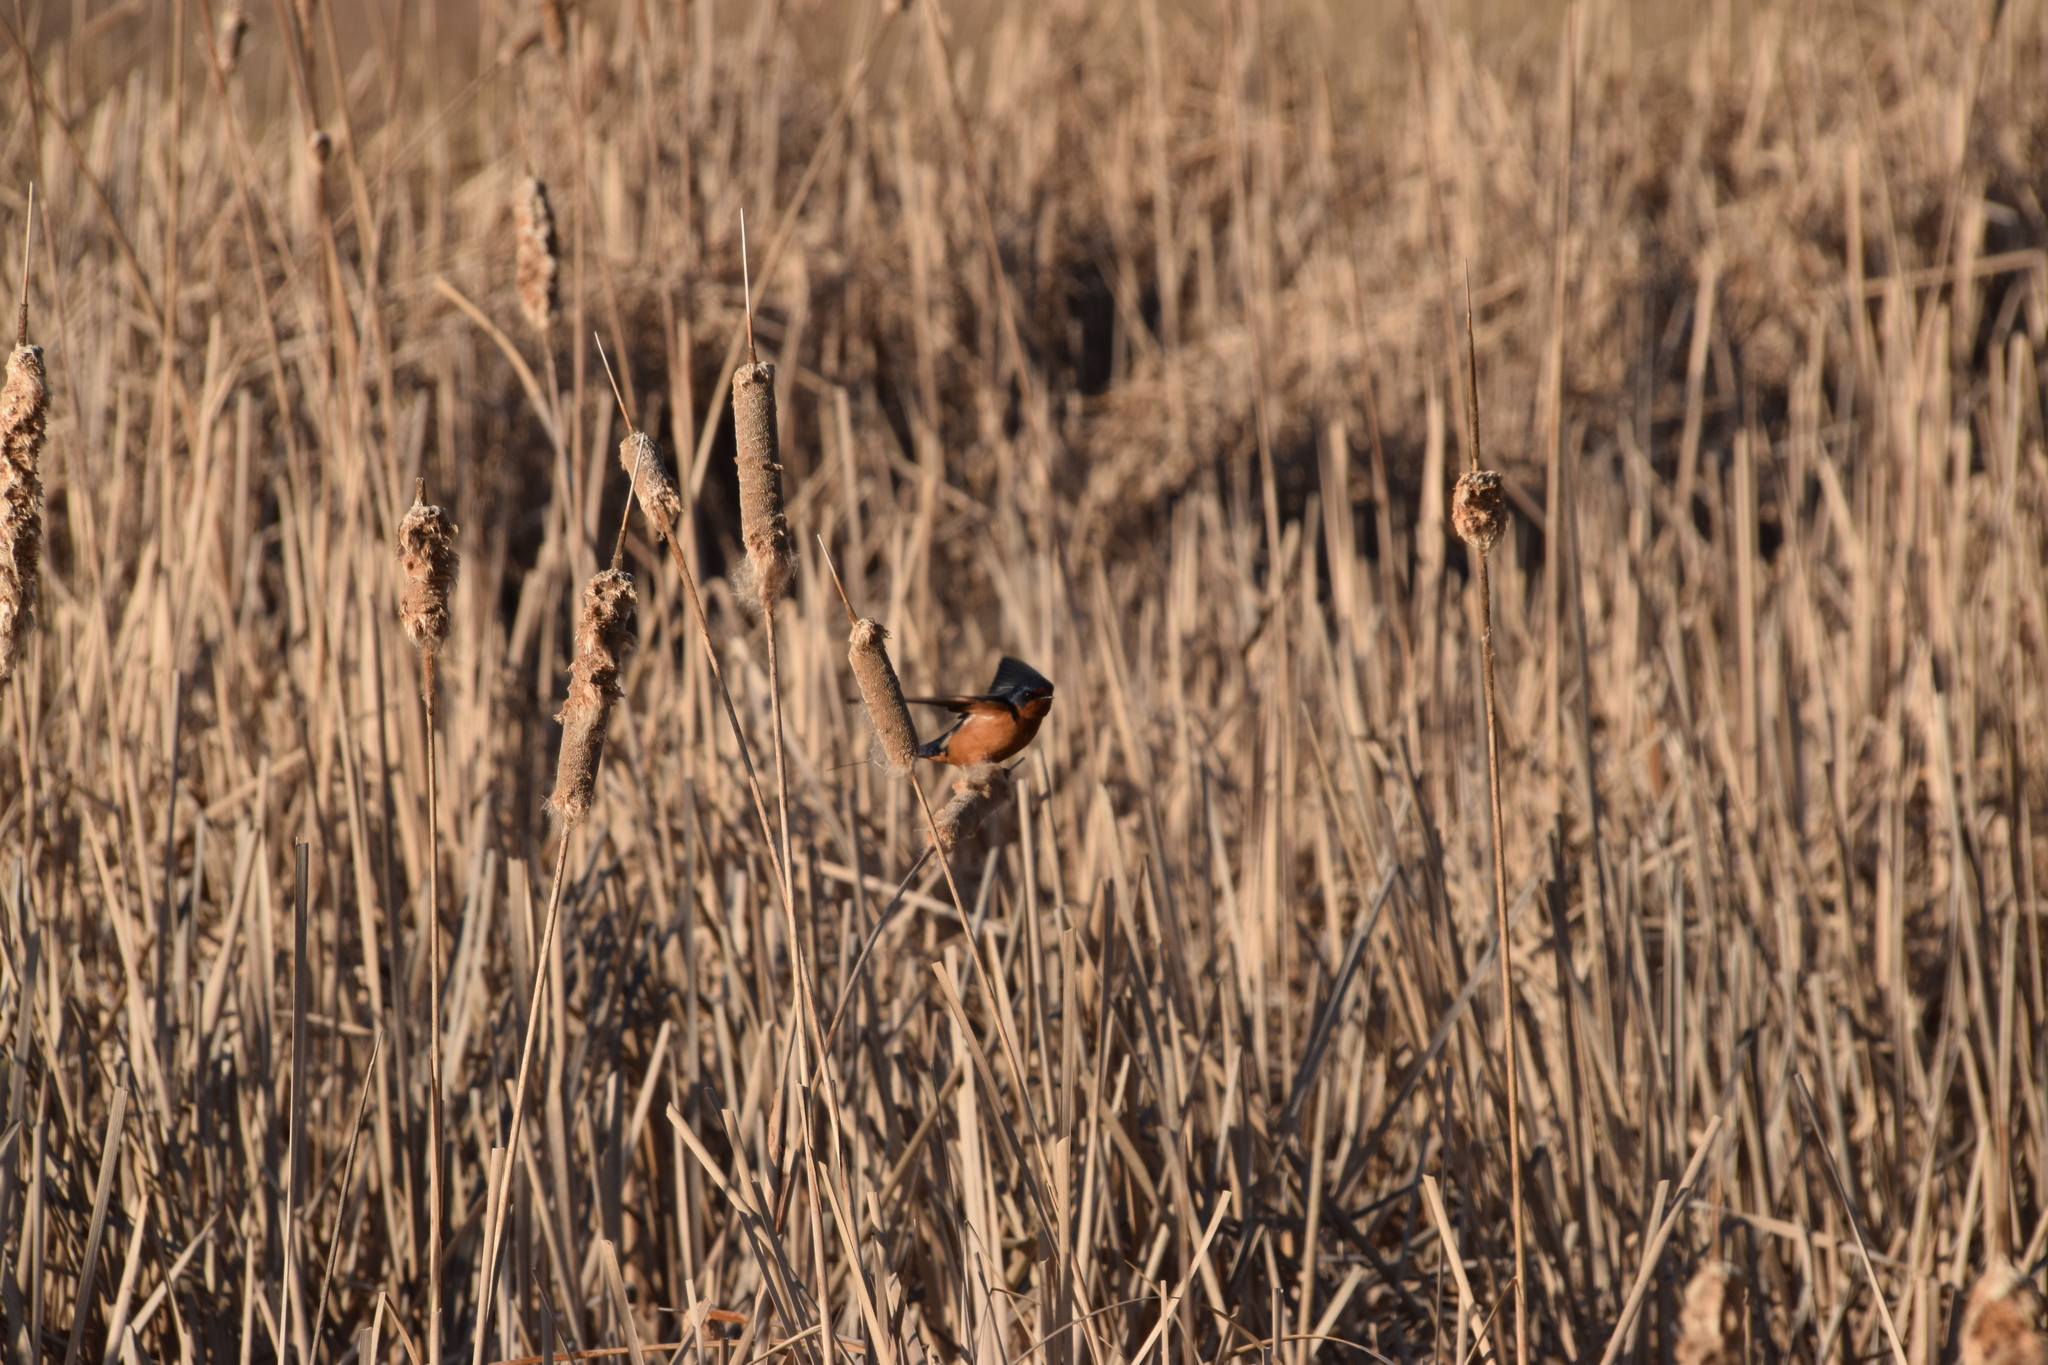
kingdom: Animalia
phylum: Chordata
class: Aves
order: Passeriformes
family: Hirundinidae
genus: Hirundo
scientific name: Hirundo rustica
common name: Barn swallow
